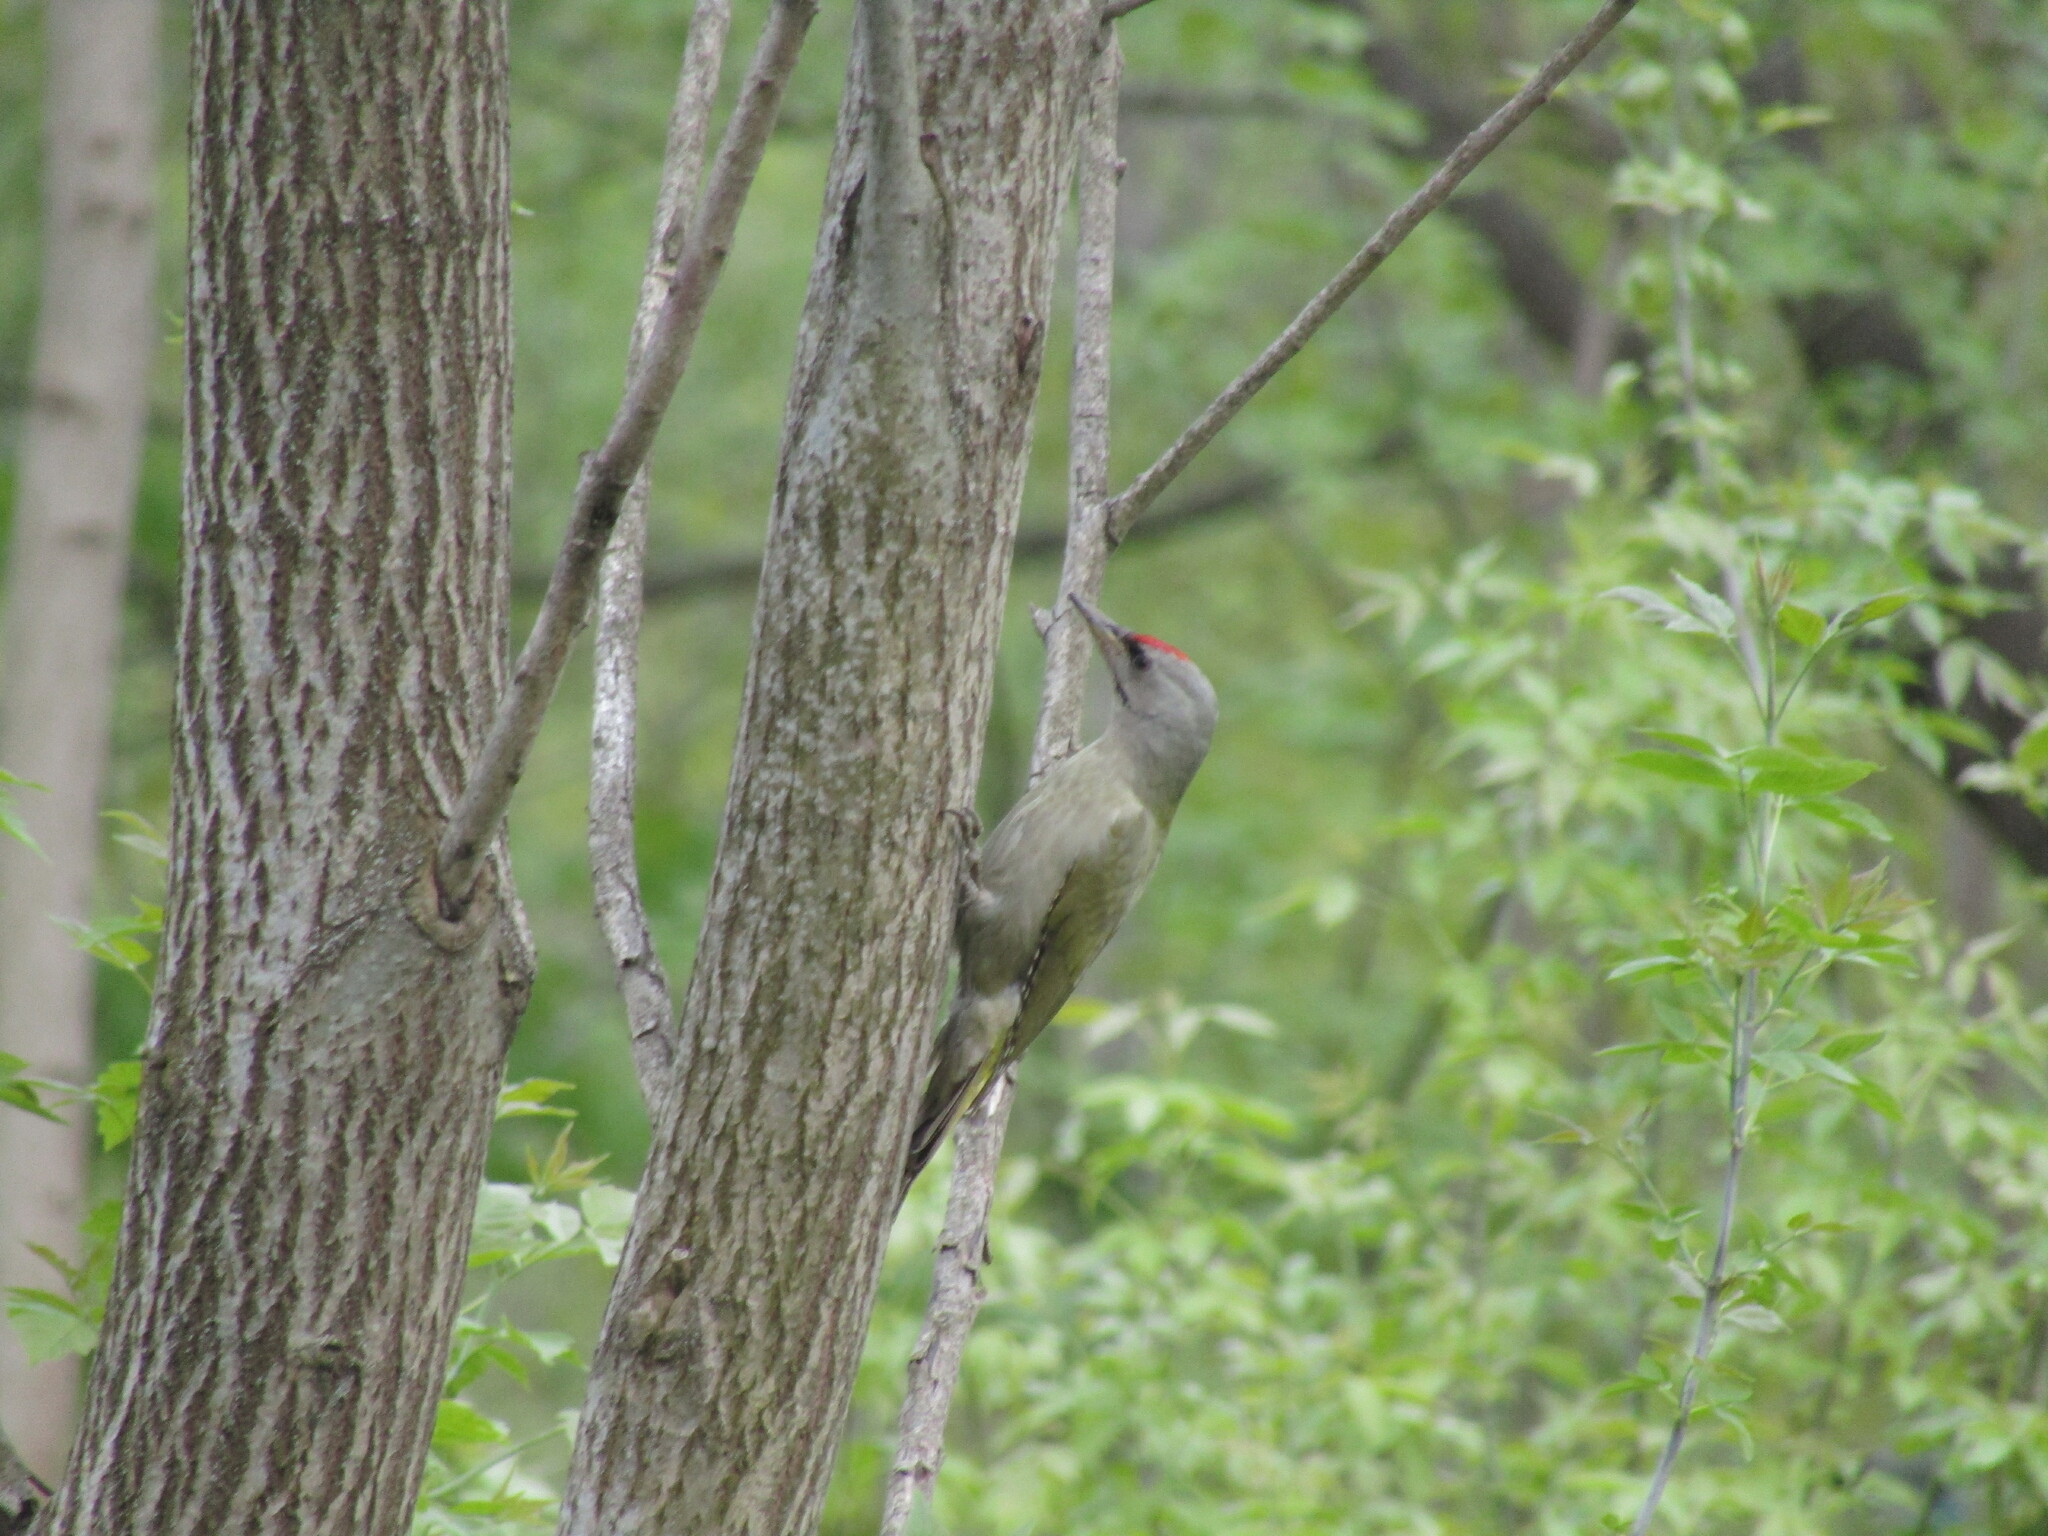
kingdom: Animalia
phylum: Chordata
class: Aves
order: Piciformes
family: Picidae
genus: Picus
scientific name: Picus canus
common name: Grey-headed woodpecker
